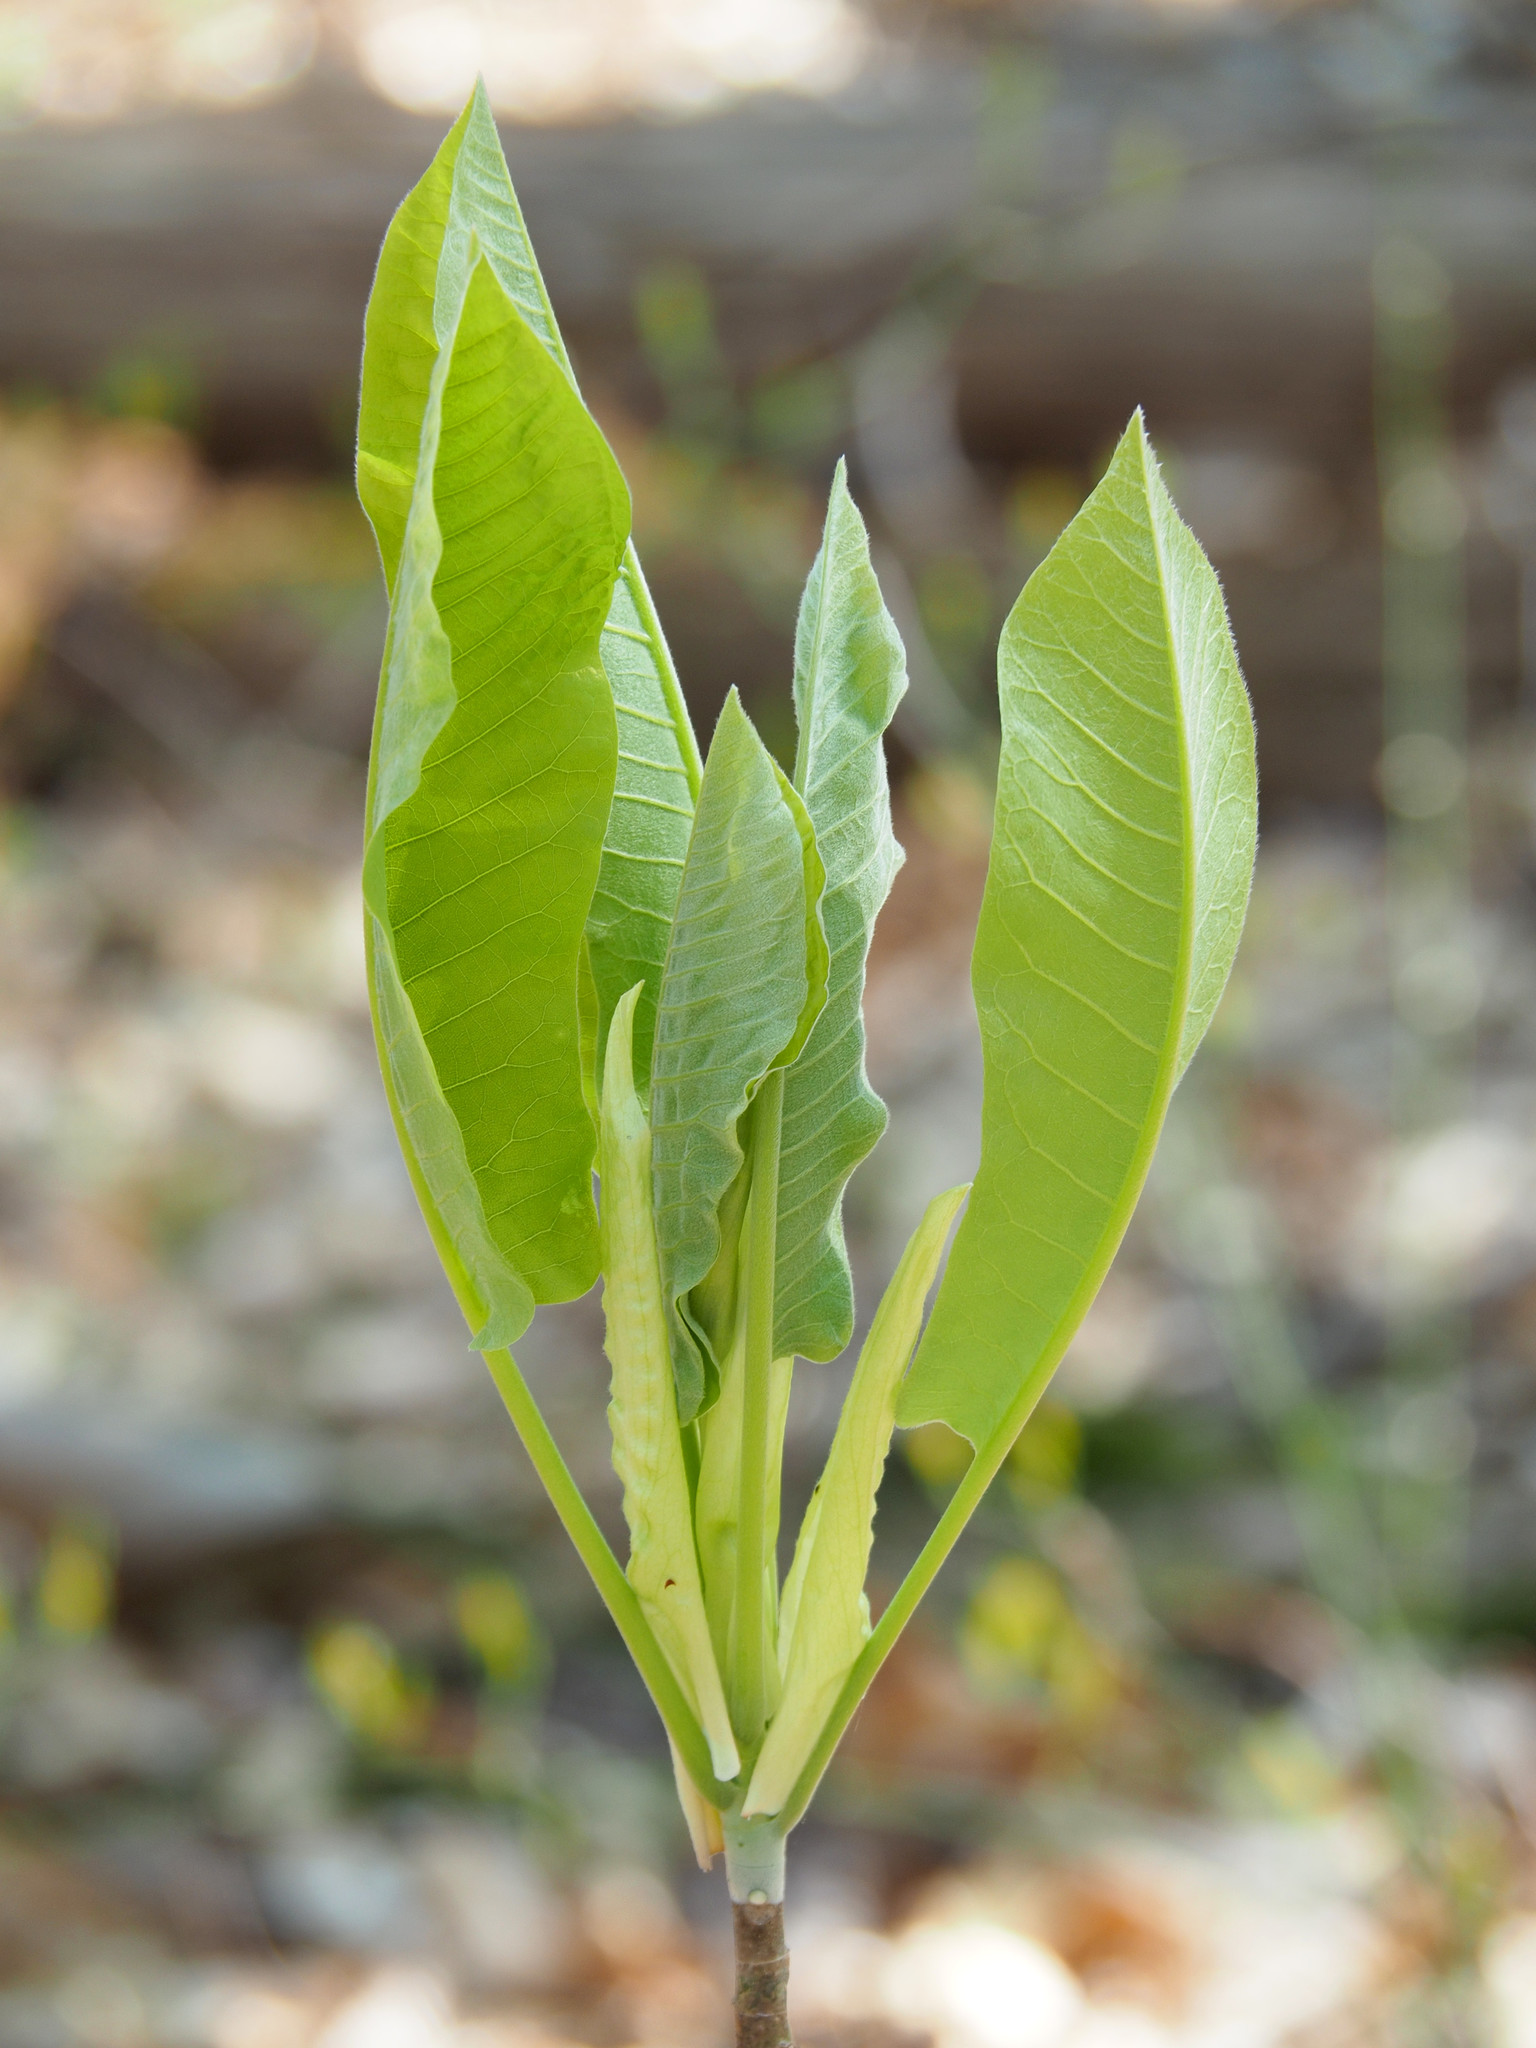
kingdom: Plantae
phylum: Tracheophyta
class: Magnoliopsida
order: Magnoliales
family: Magnoliaceae
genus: Magnolia
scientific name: Magnolia macrophylla
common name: Big-leaf magnolia
